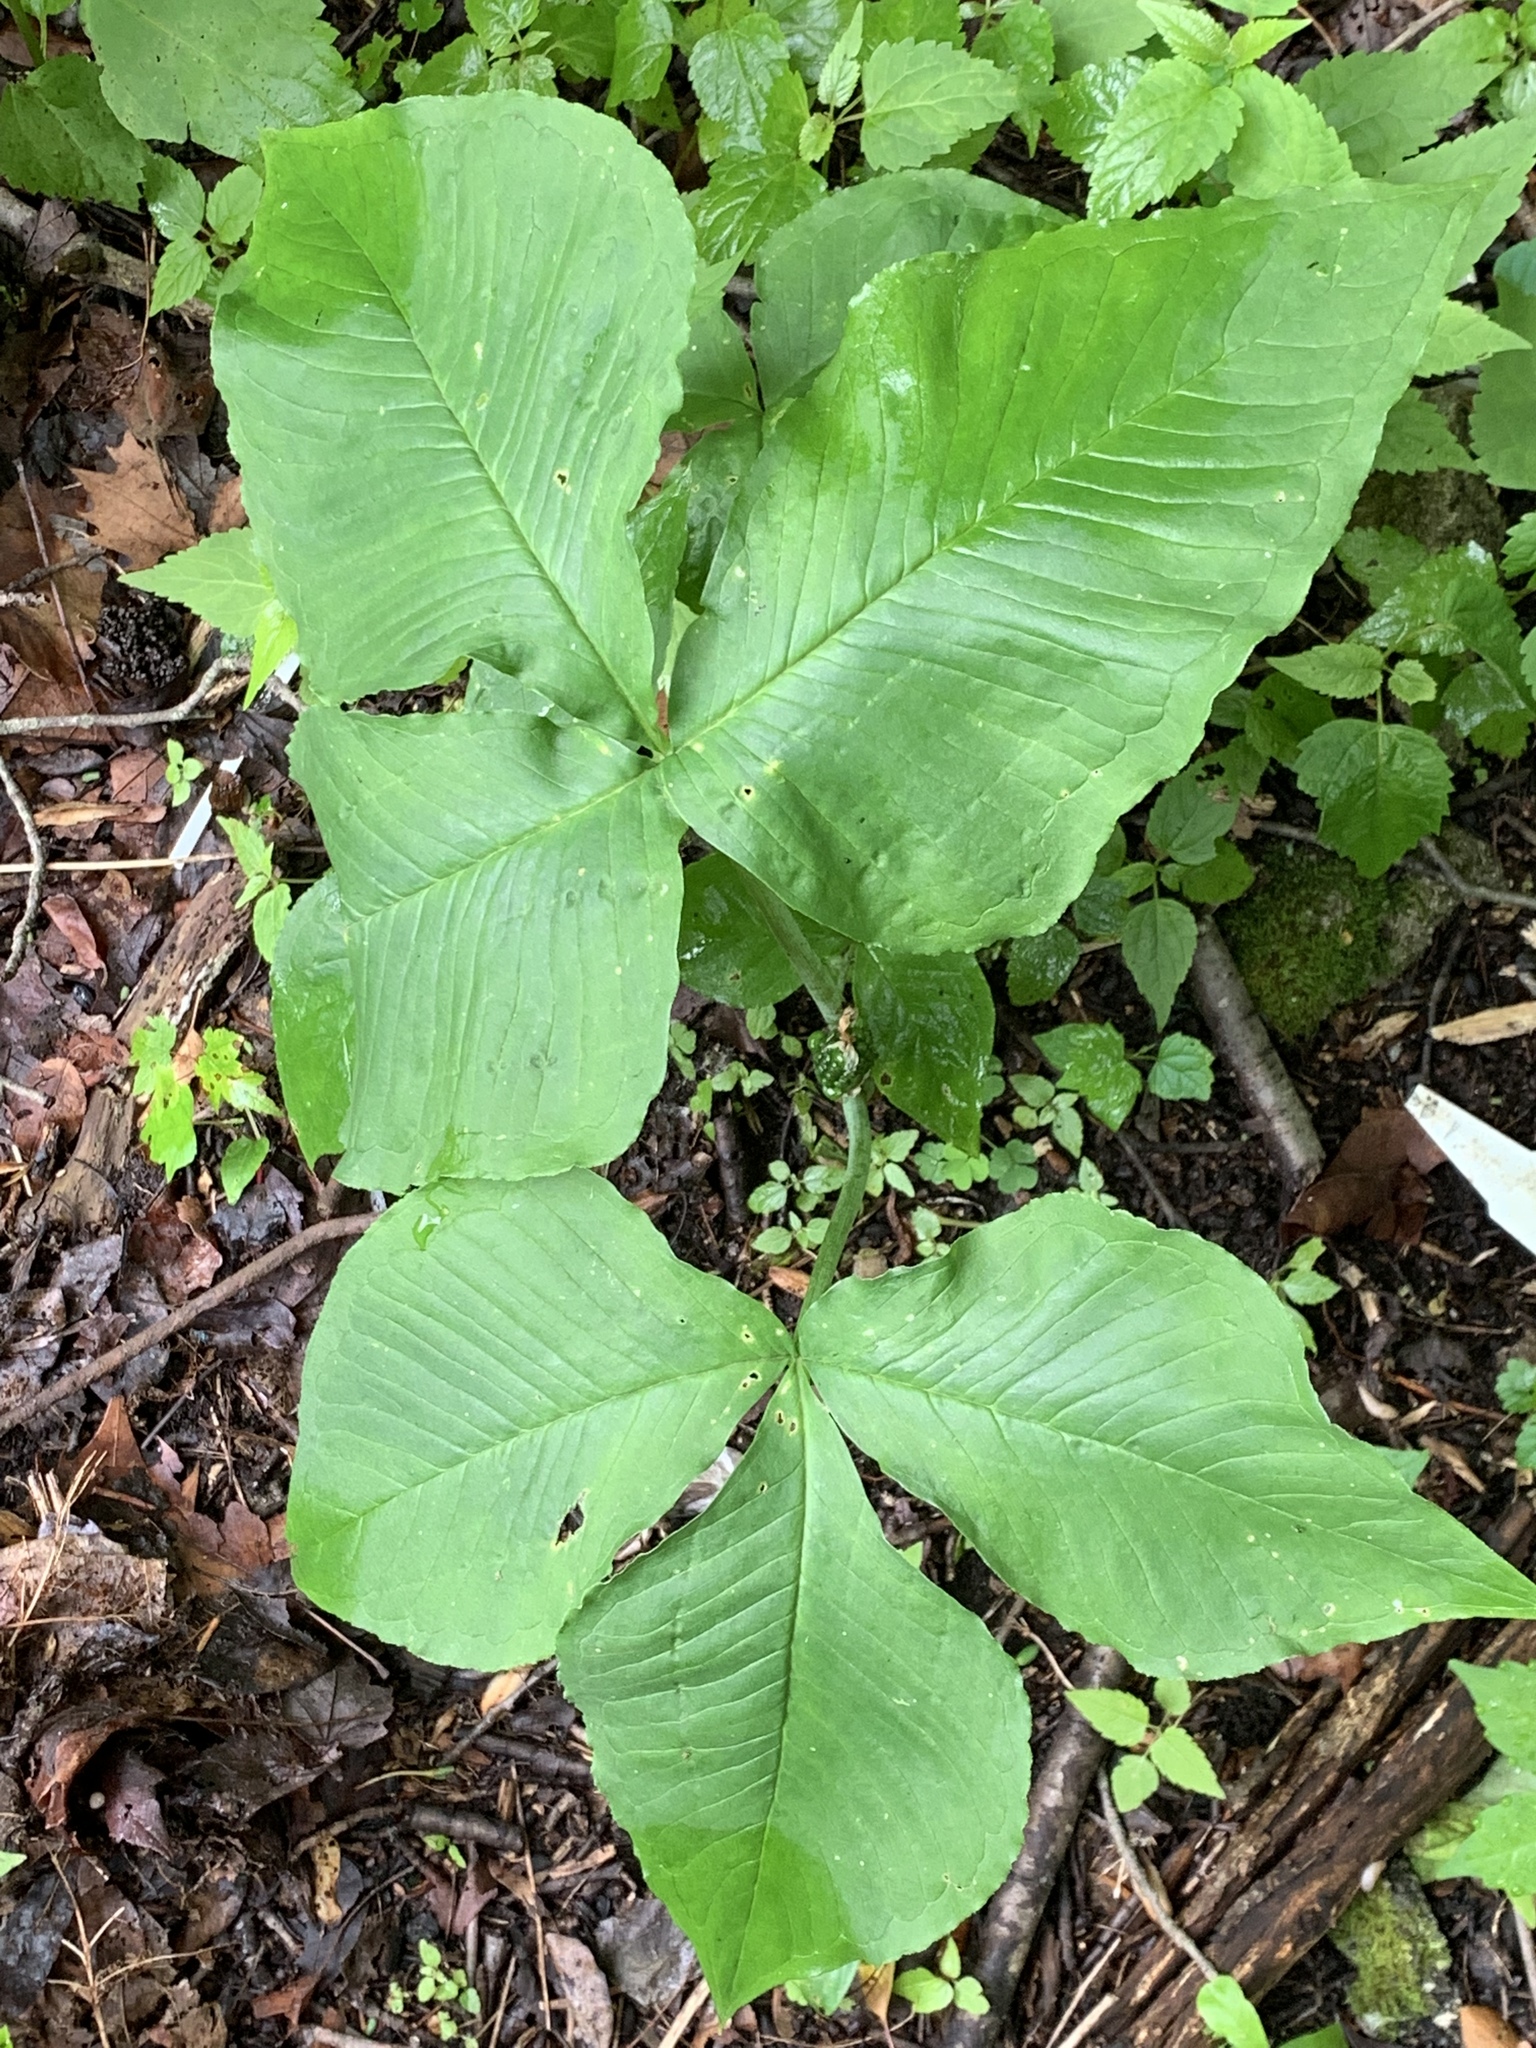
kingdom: Plantae
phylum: Tracheophyta
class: Liliopsida
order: Alismatales
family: Araceae
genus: Arisaema
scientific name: Arisaema triphyllum
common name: Jack-in-the-pulpit
